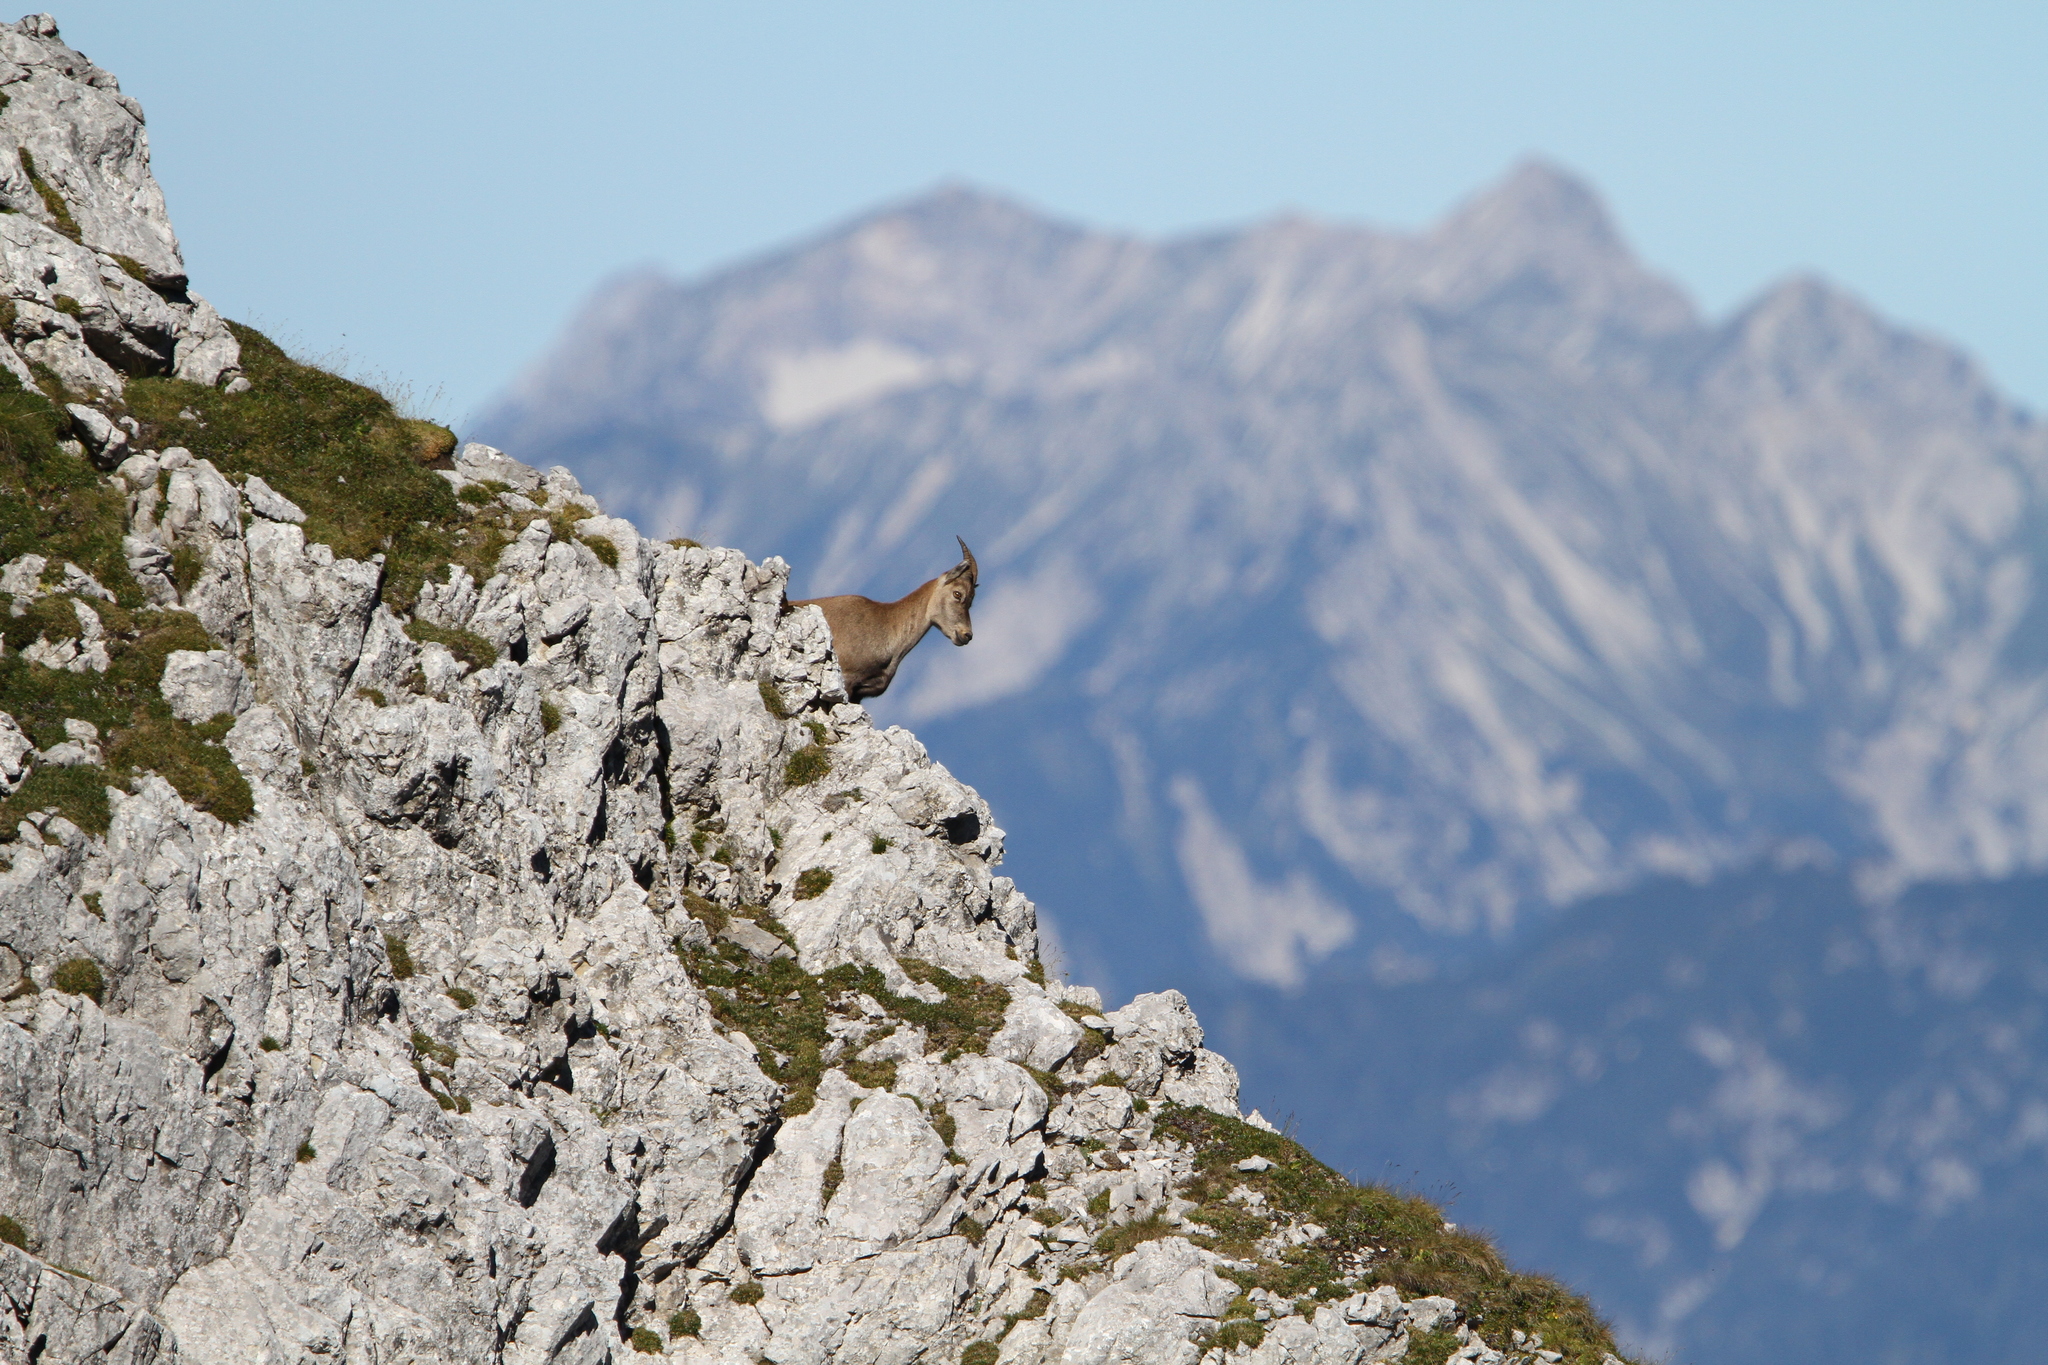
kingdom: Animalia
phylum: Chordata
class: Mammalia
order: Artiodactyla
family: Bovidae
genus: Capra
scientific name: Capra ibex
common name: Alpine ibex
